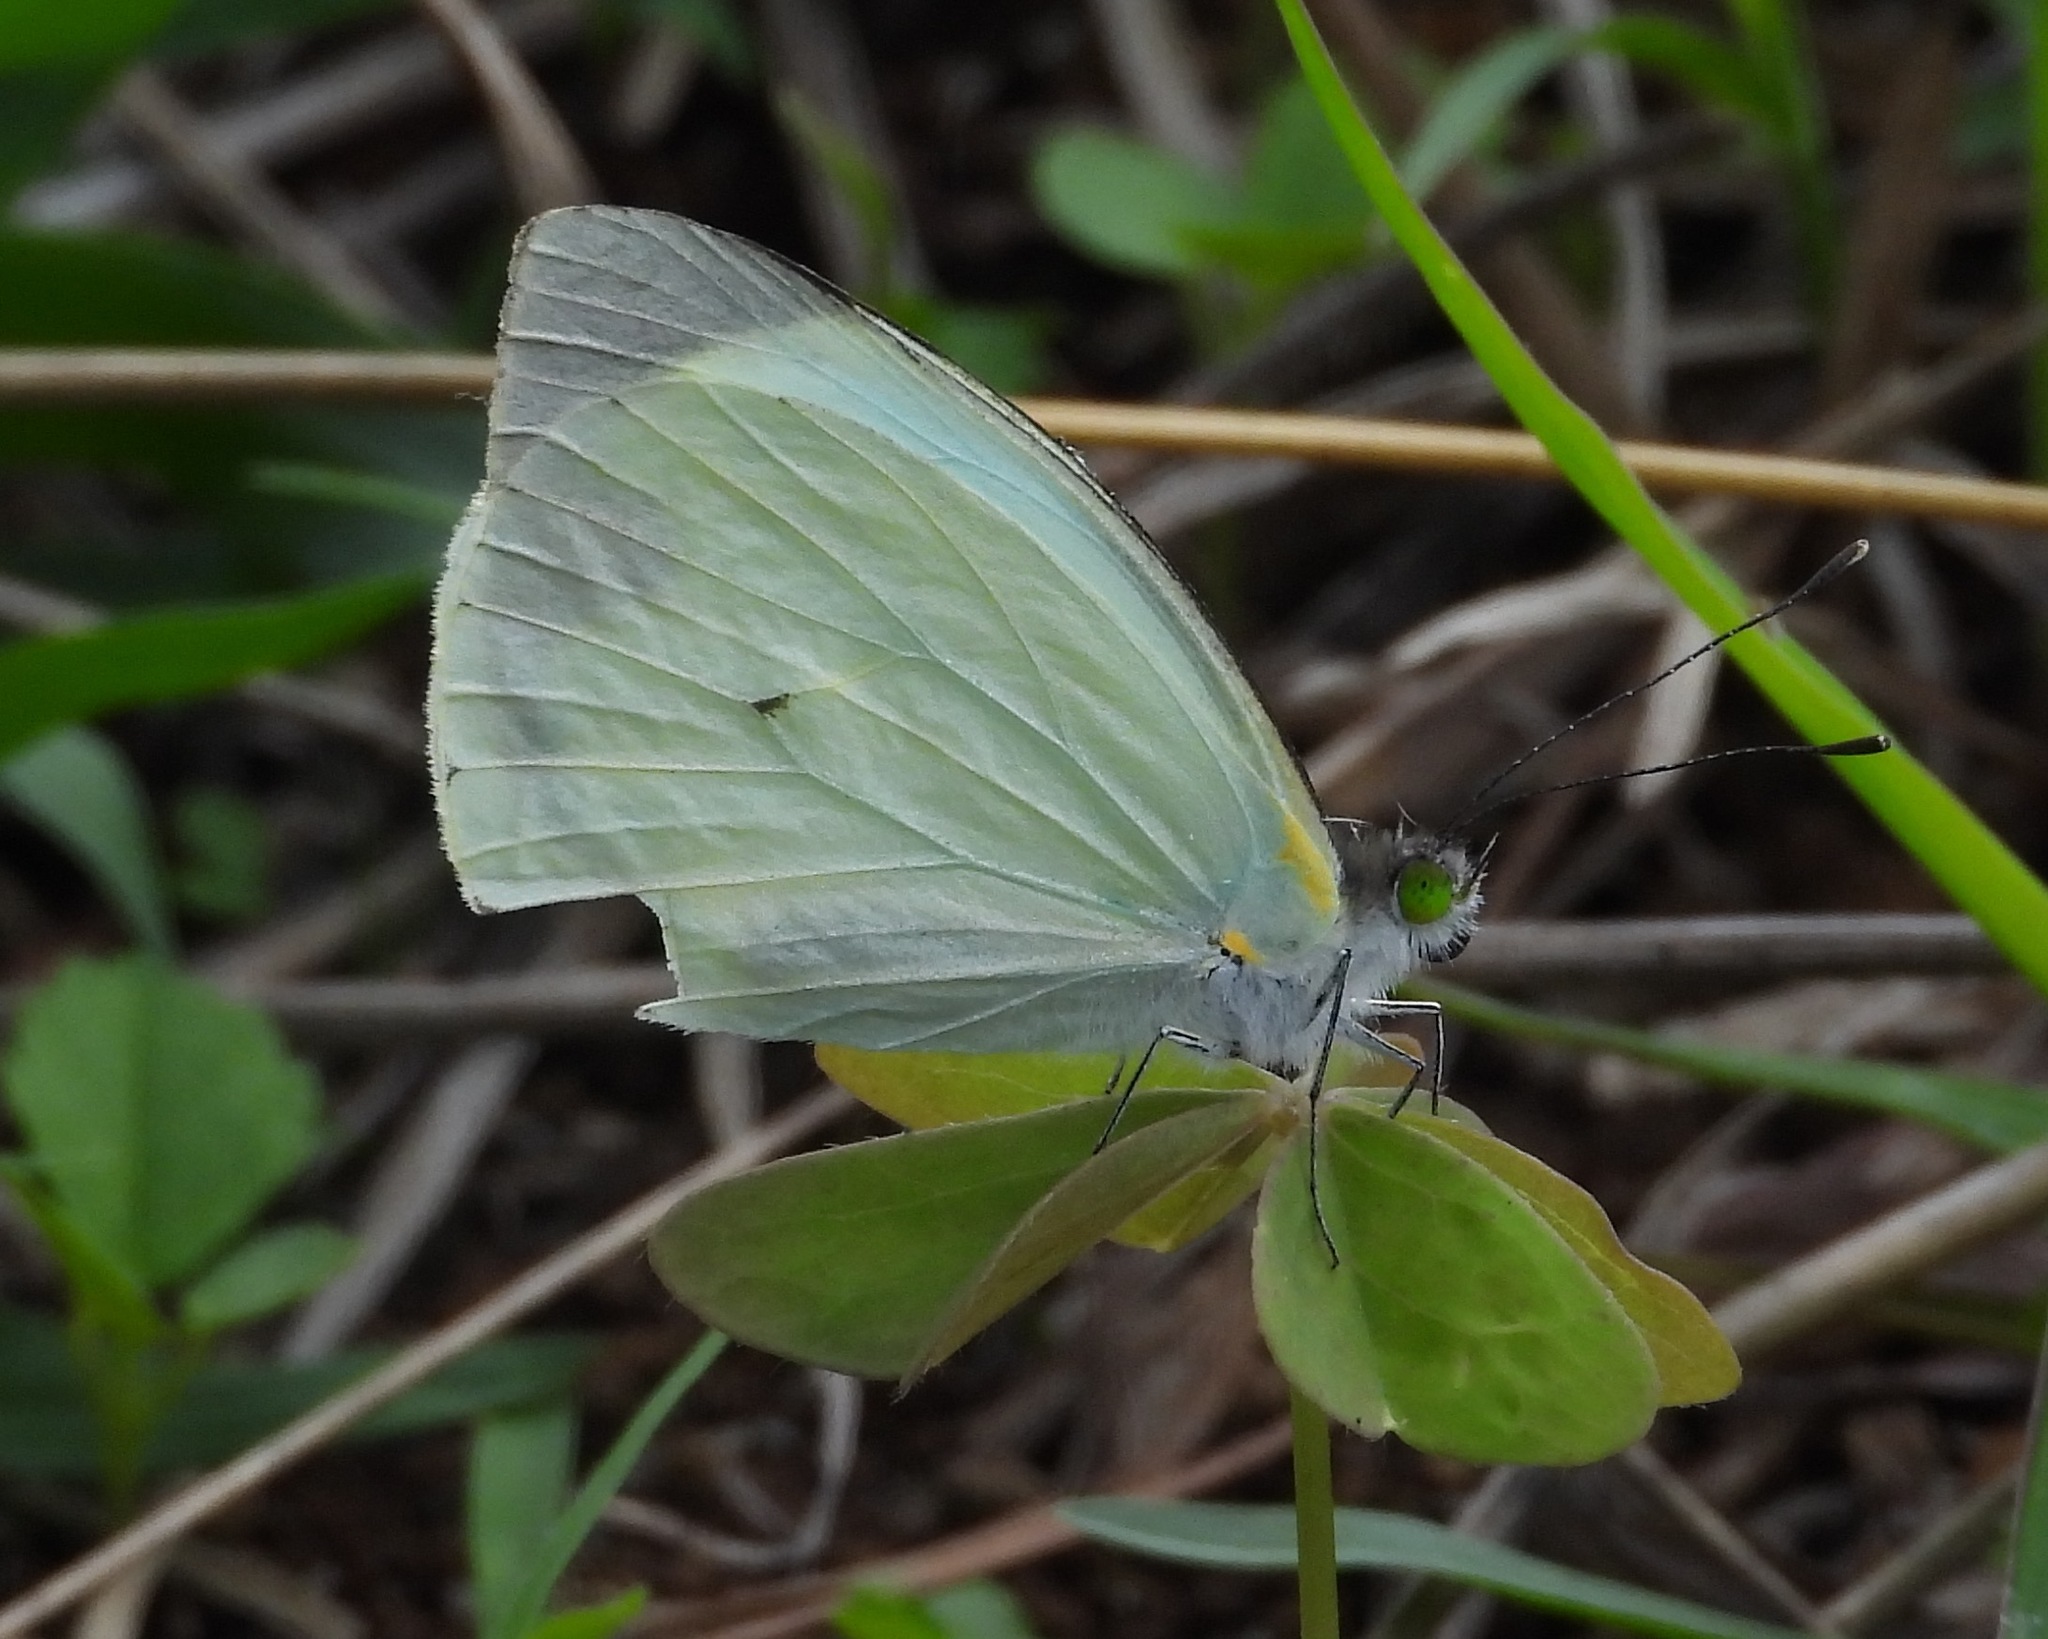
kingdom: Animalia
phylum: Arthropoda
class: Insecta
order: Lepidoptera
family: Pieridae
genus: Leptophobia
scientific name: Leptophobia aripa
